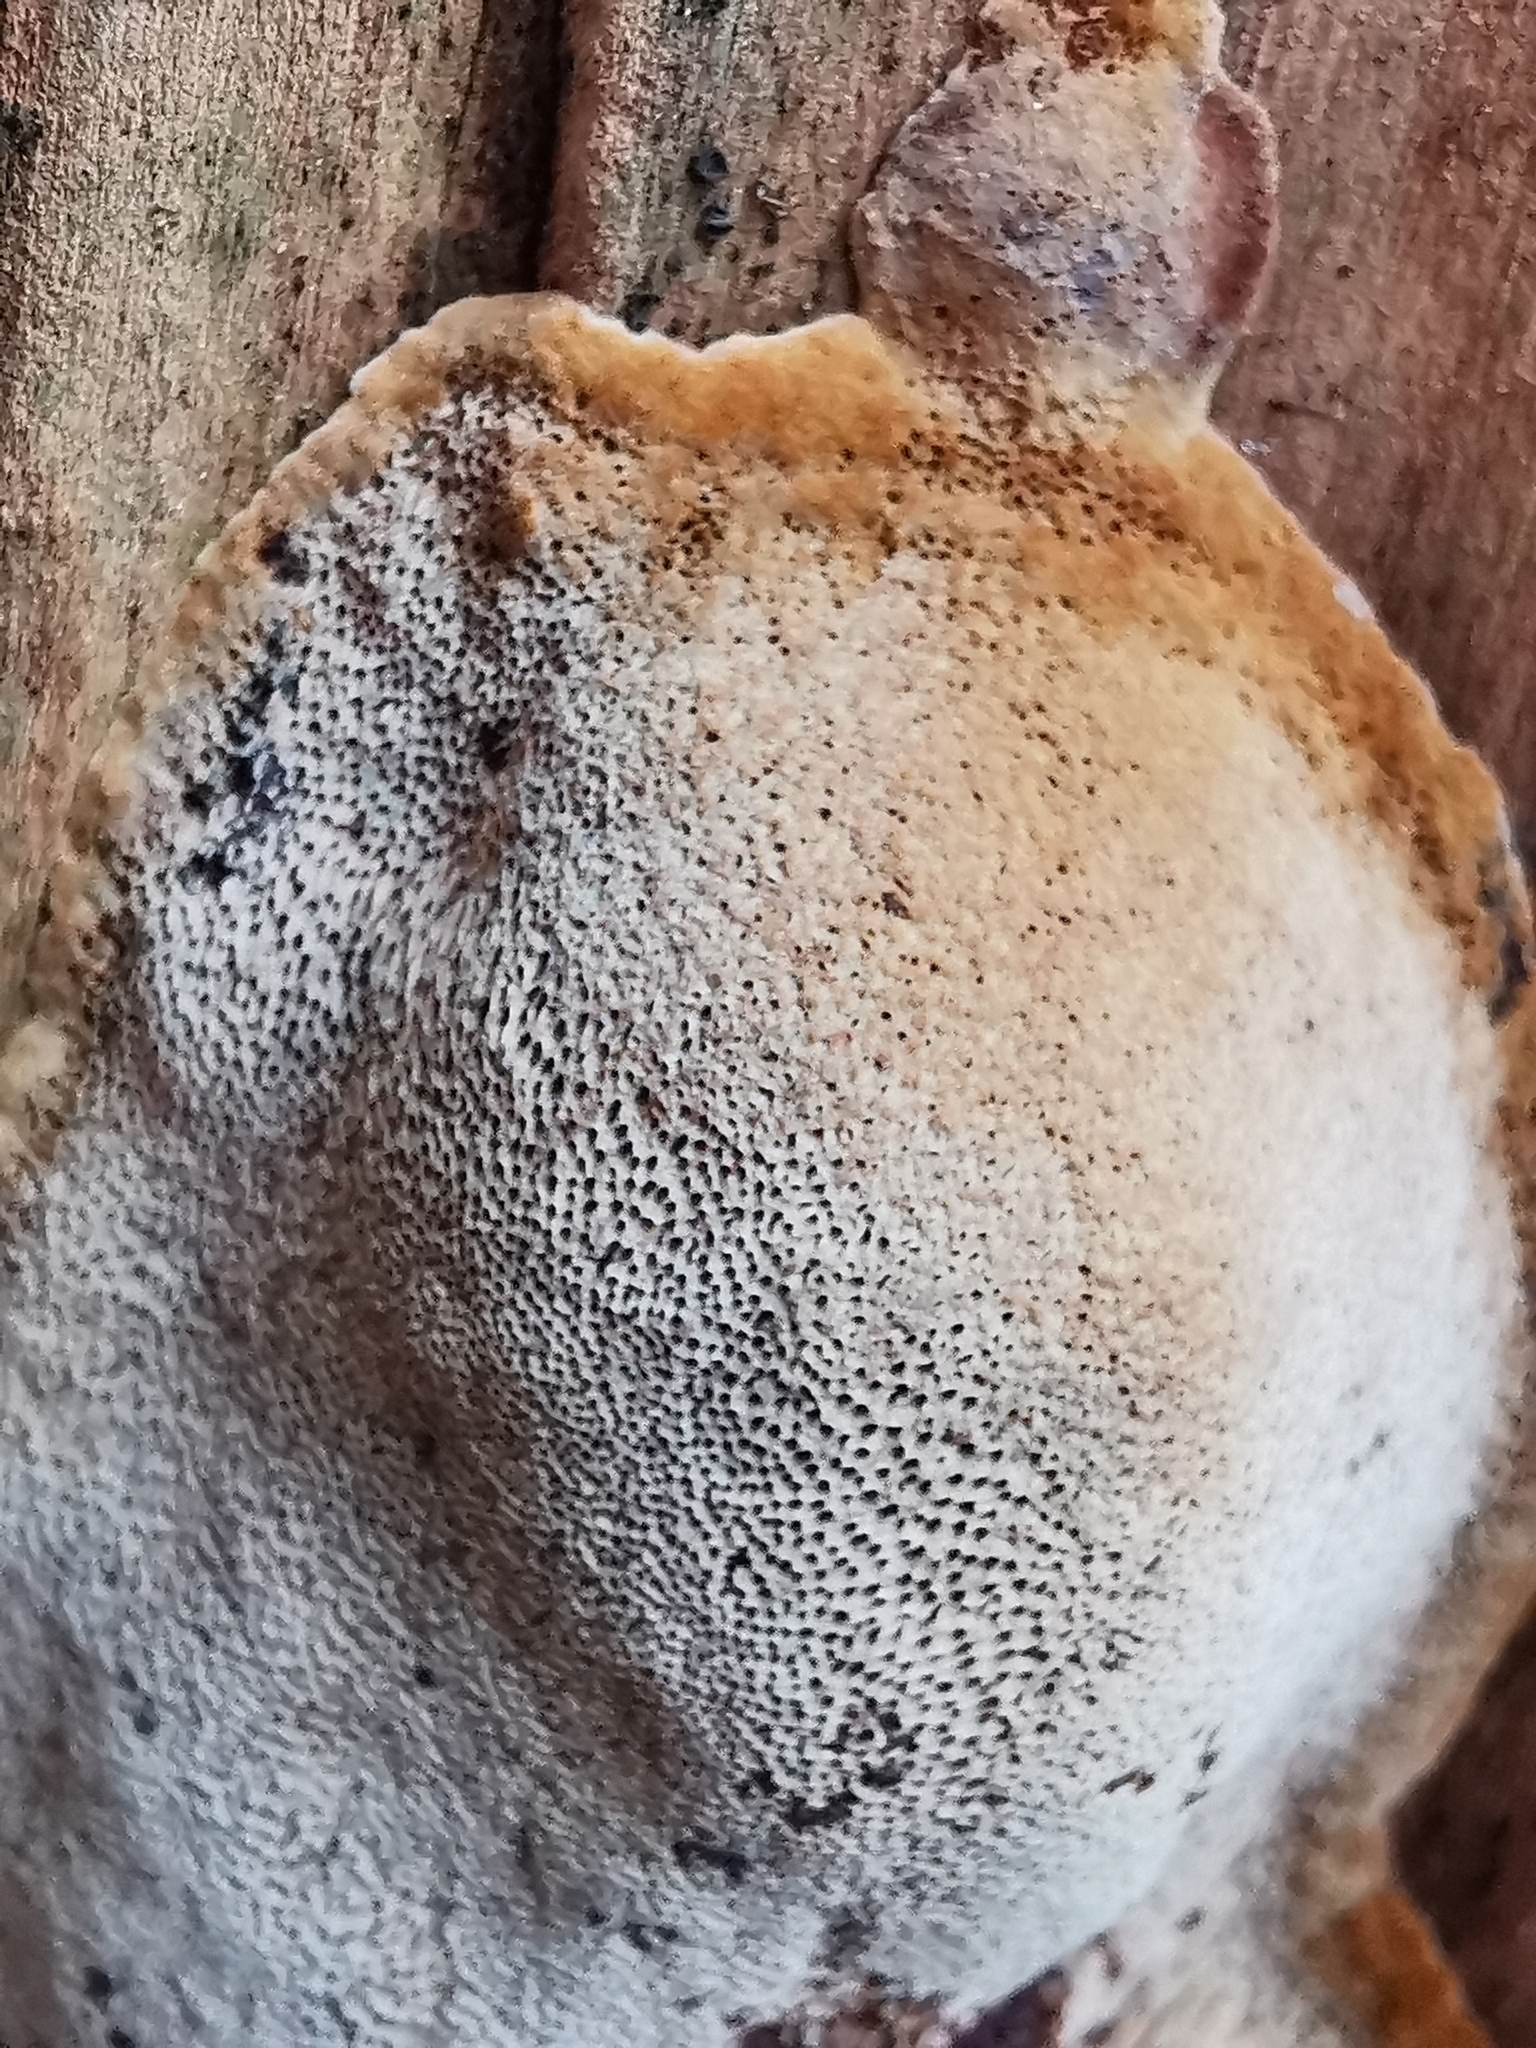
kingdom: Fungi
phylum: Basidiomycota
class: Agaricomycetes
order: Hymenochaetales
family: Hymenochaetaceae
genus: Phellinus
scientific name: Phellinus pomaceus
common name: Cushion bracket
